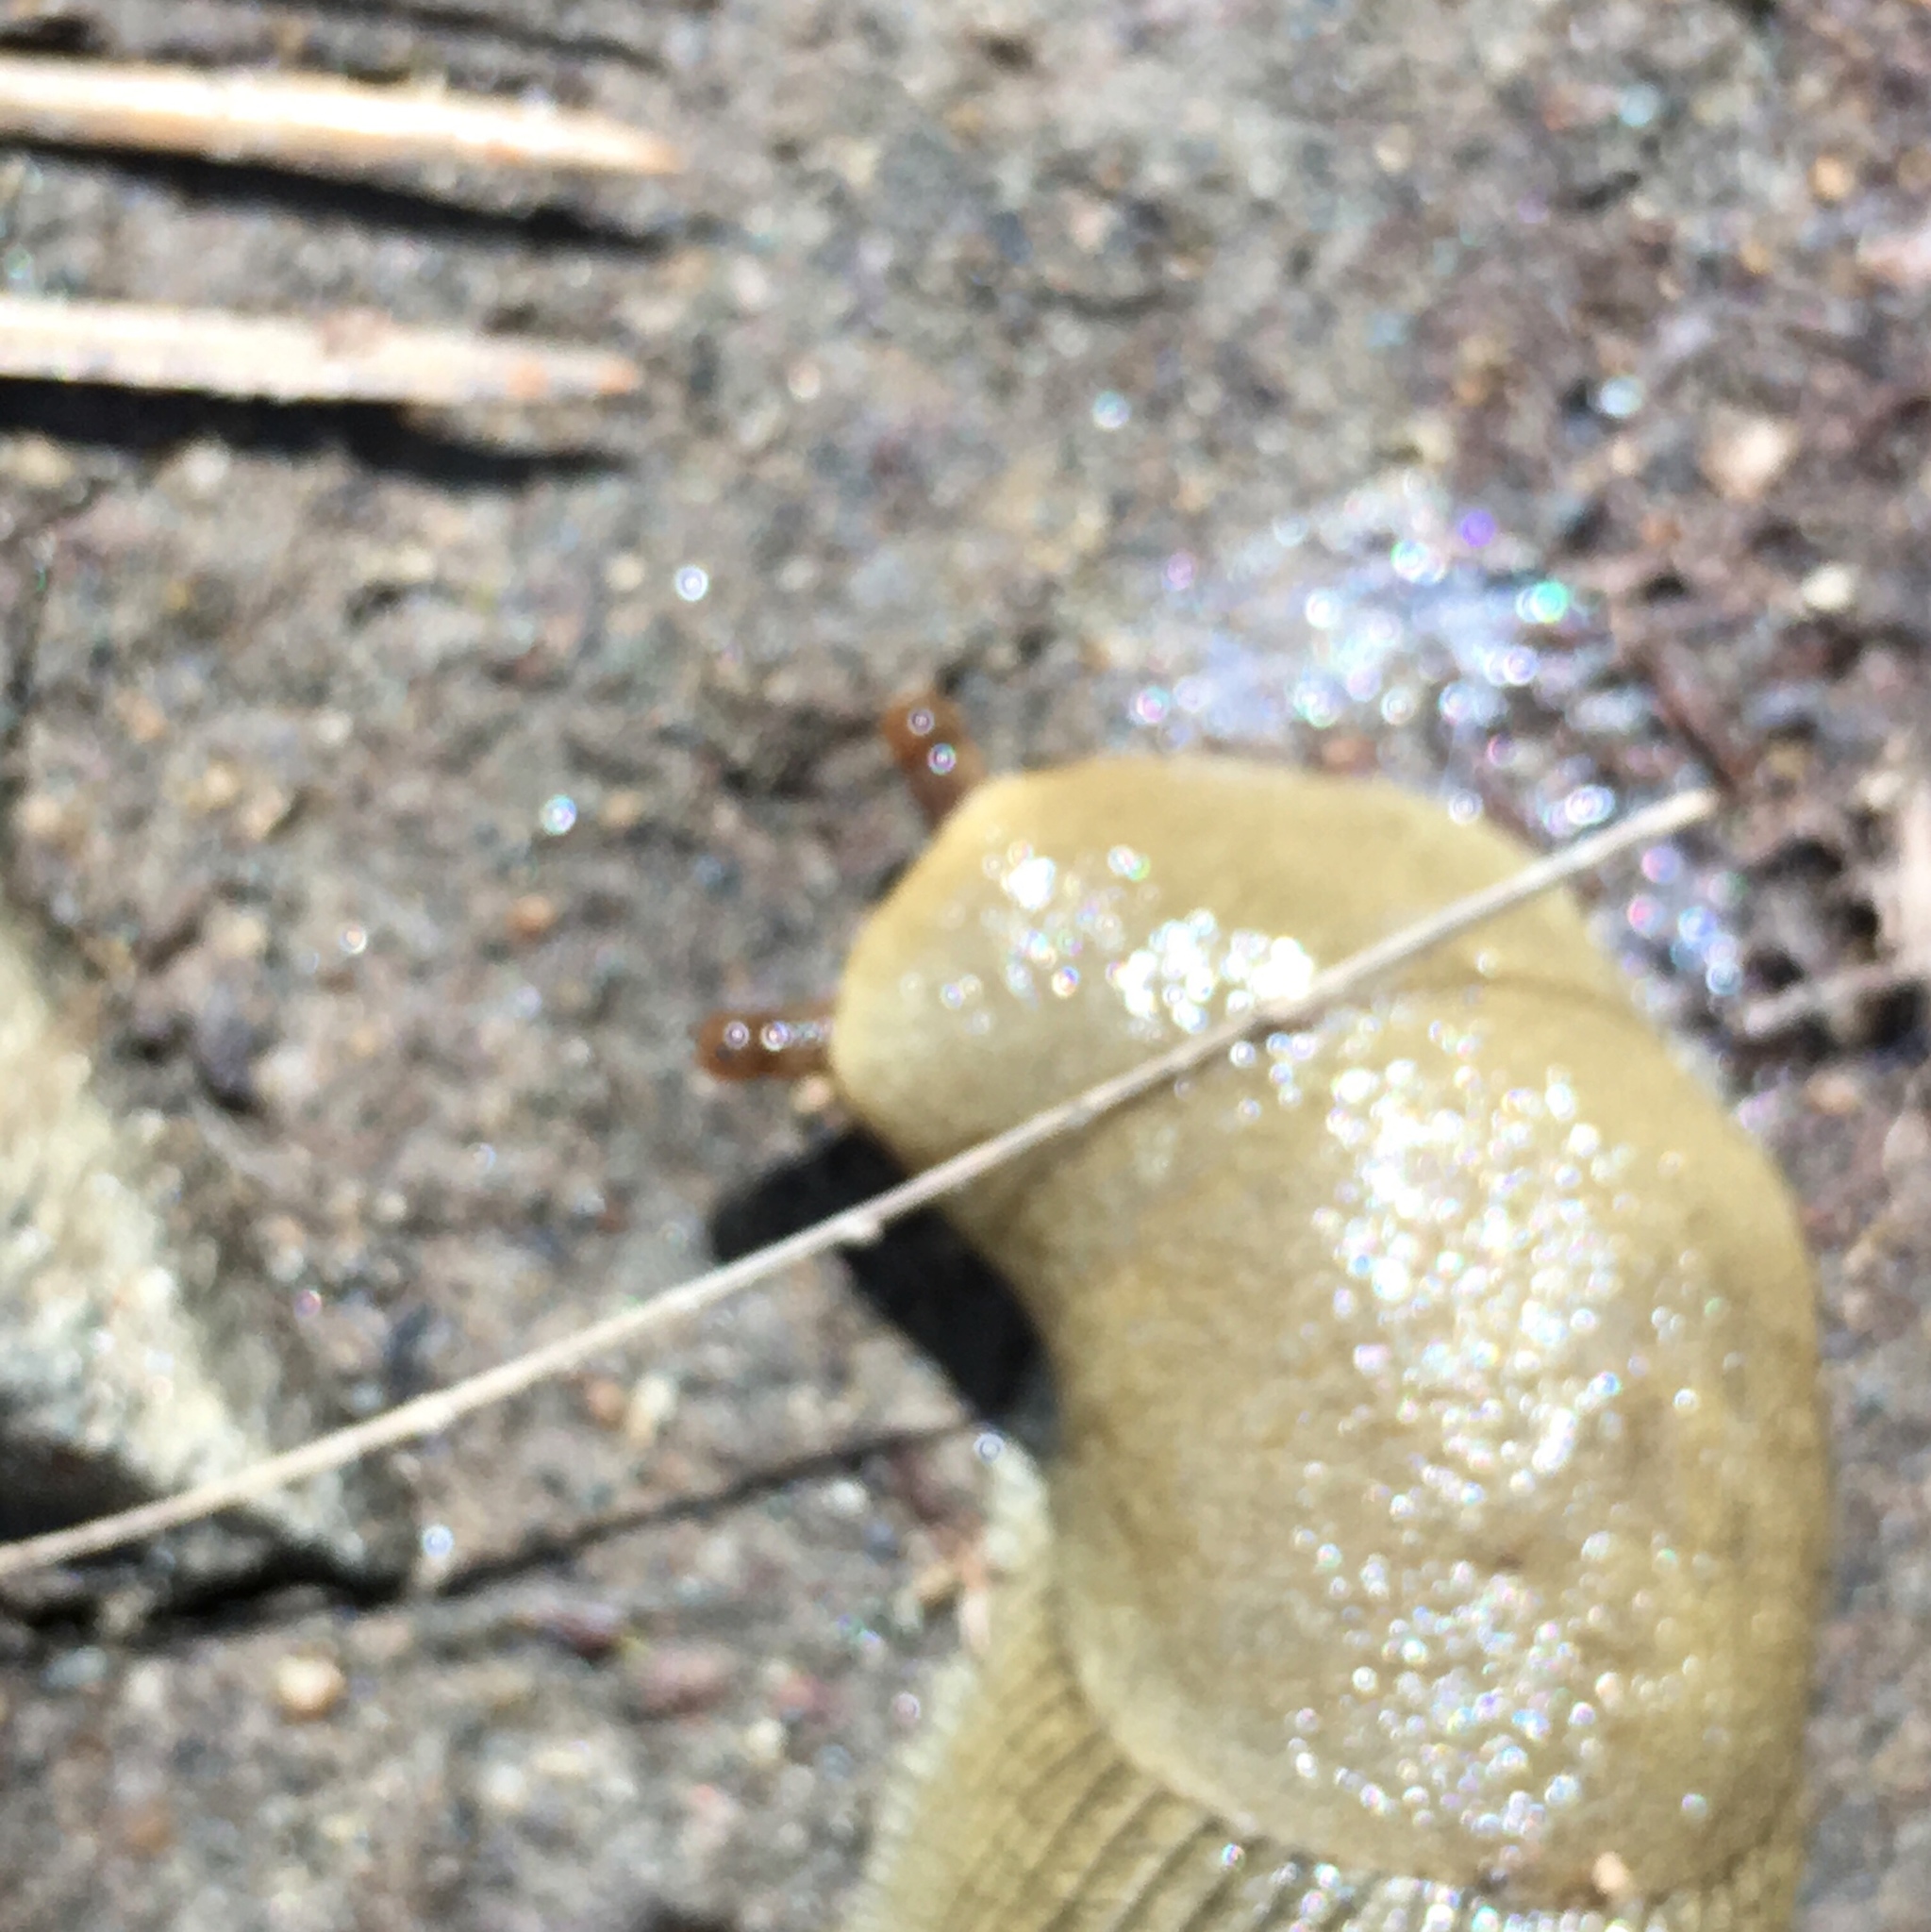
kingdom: Animalia
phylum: Mollusca
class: Gastropoda
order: Stylommatophora
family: Ariolimacidae
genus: Ariolimax
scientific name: Ariolimax buttoni
